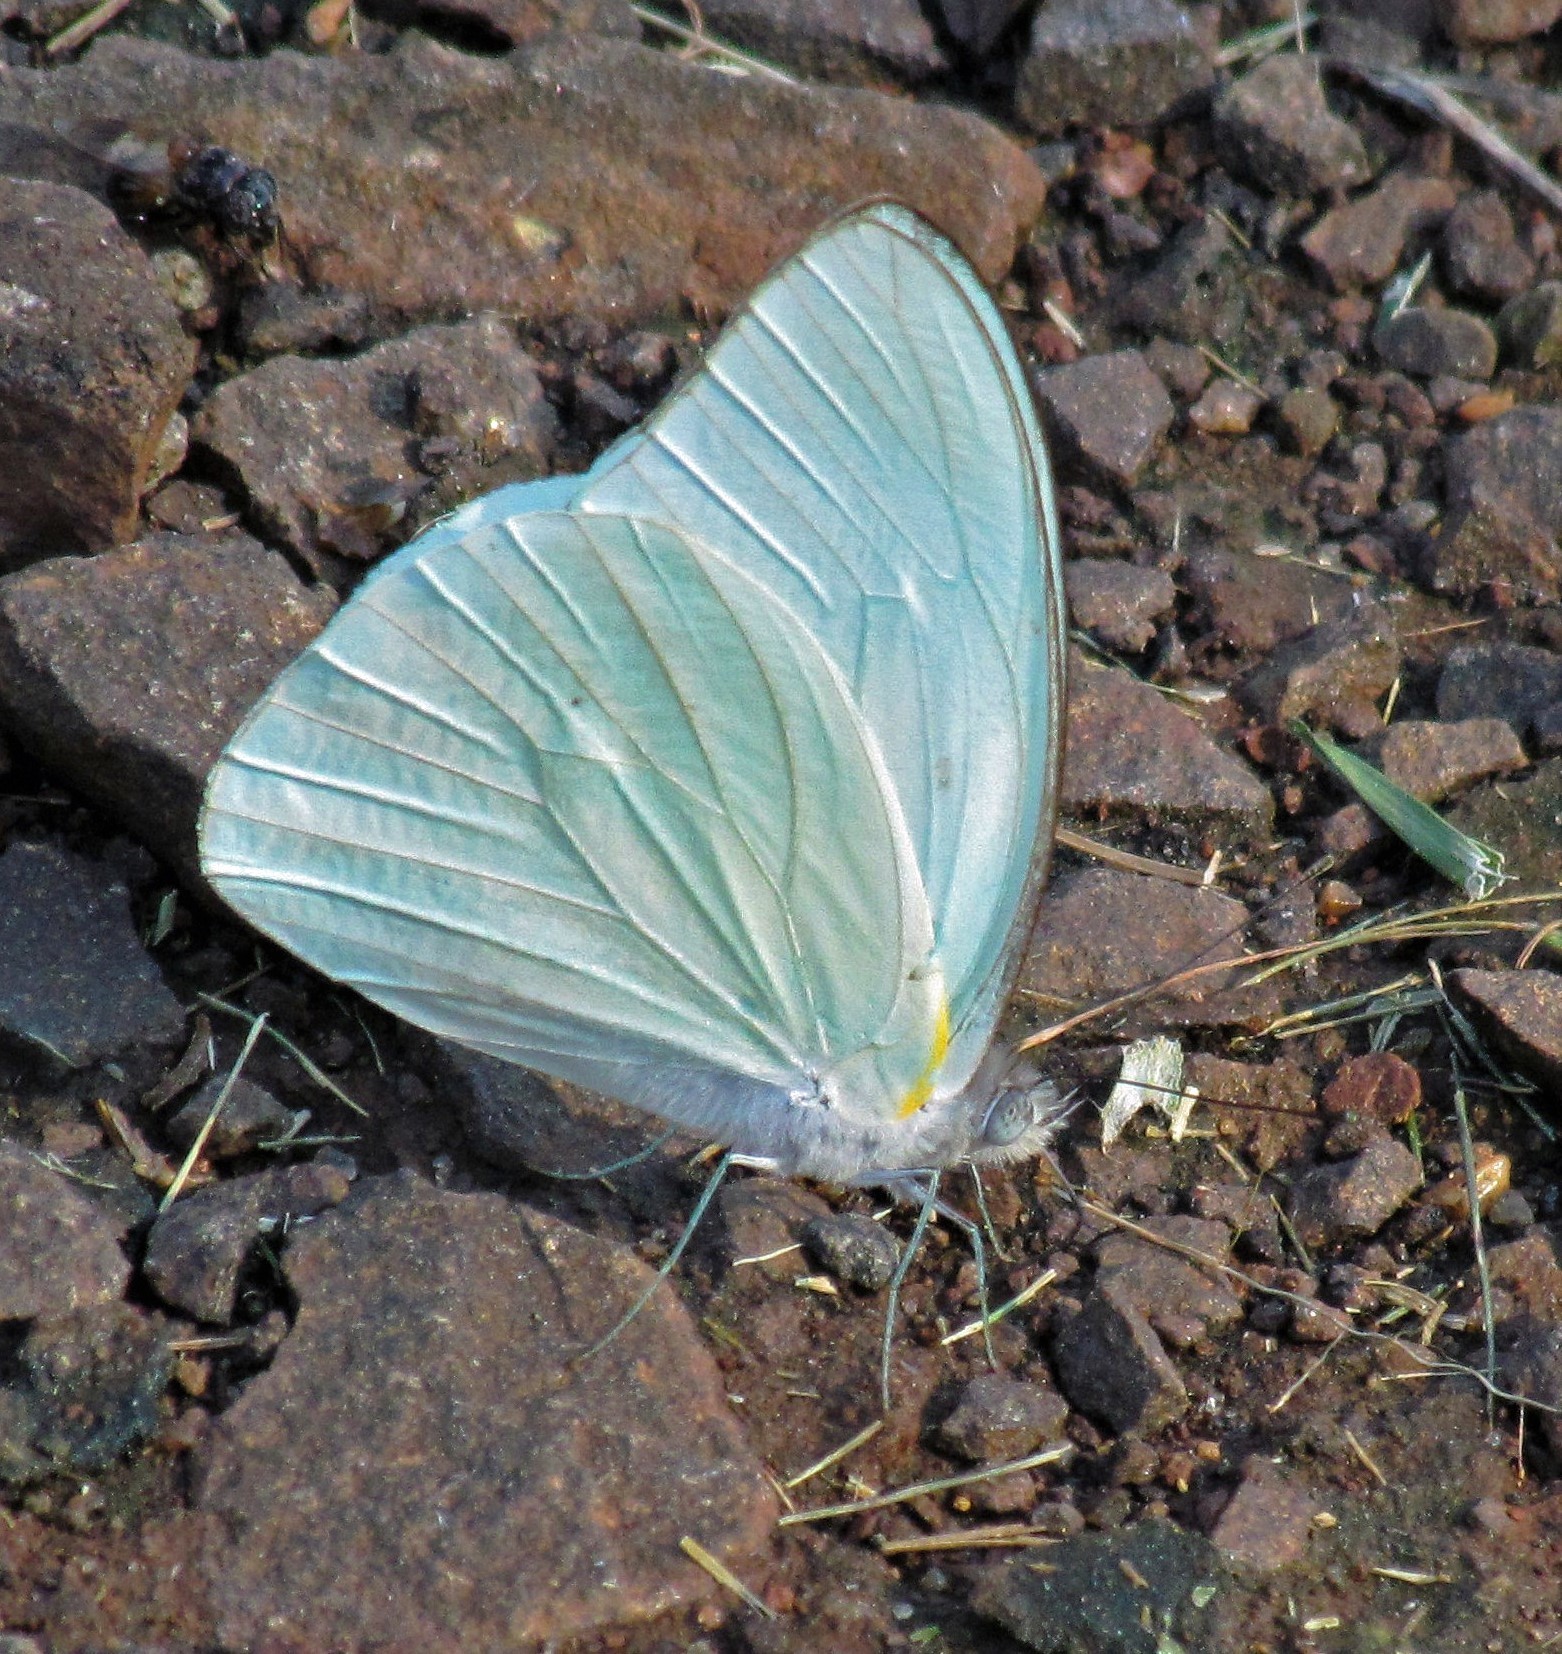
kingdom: Animalia
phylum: Arthropoda
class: Insecta
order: Lepidoptera
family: Pieridae
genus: Glutophrissa
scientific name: Glutophrissa drusilla
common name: Florida white
